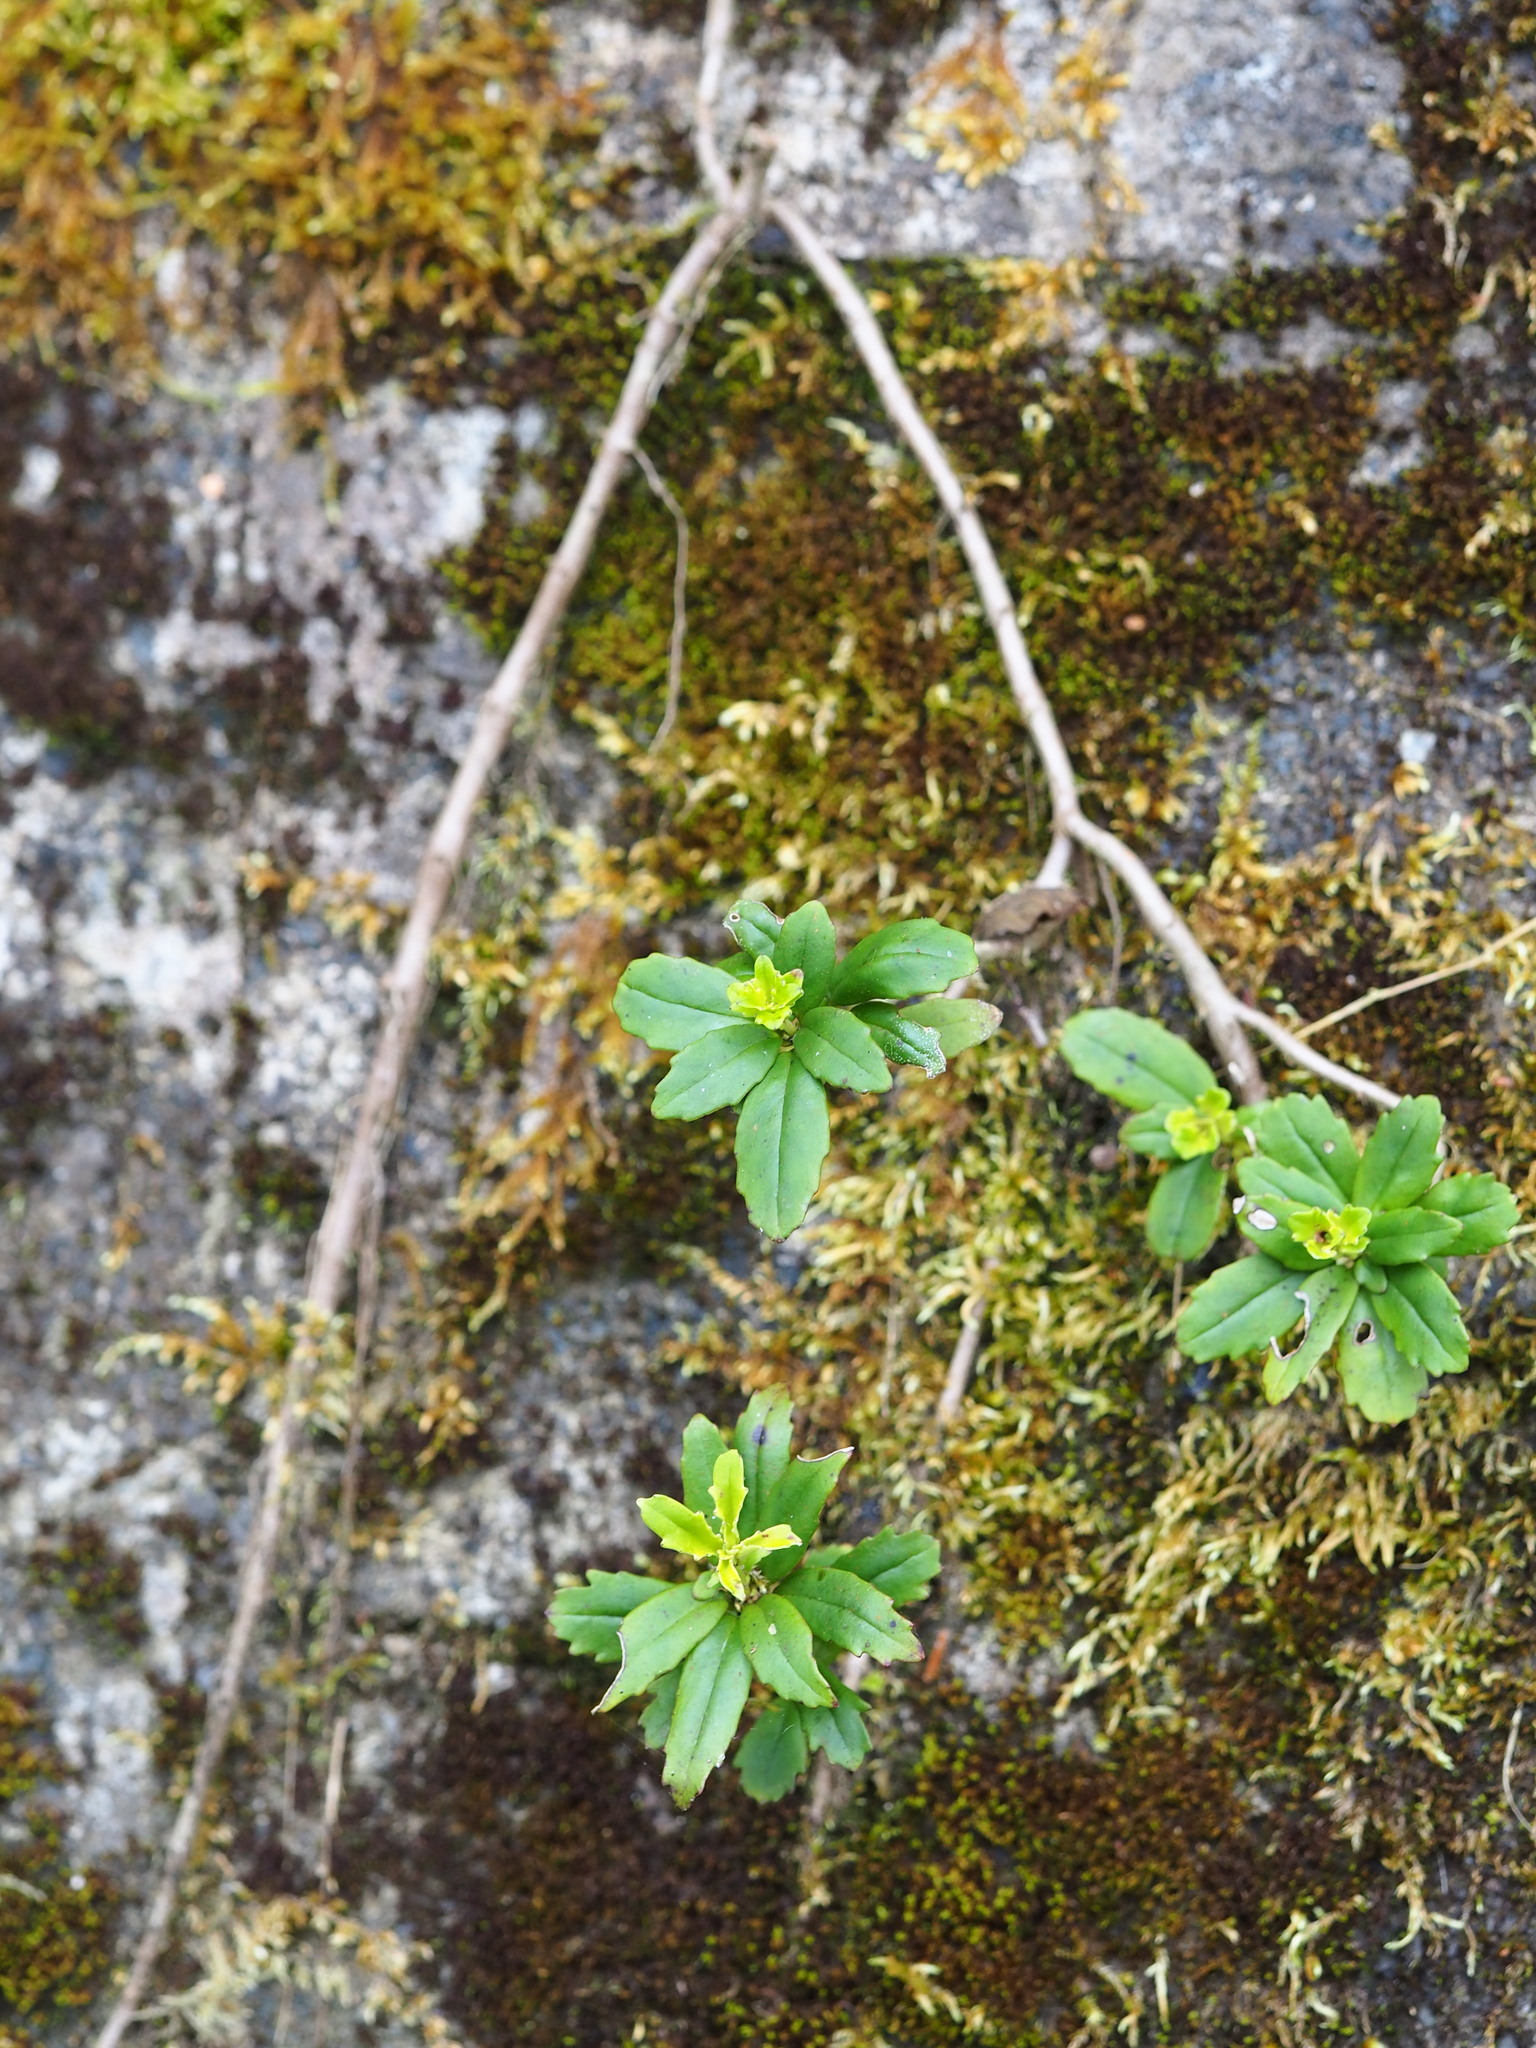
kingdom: Plantae
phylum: Tracheophyta
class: Magnoliopsida
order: Lamiales
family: Gesneriaceae
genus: Lysionotus
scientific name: Lysionotus pauciflorus
